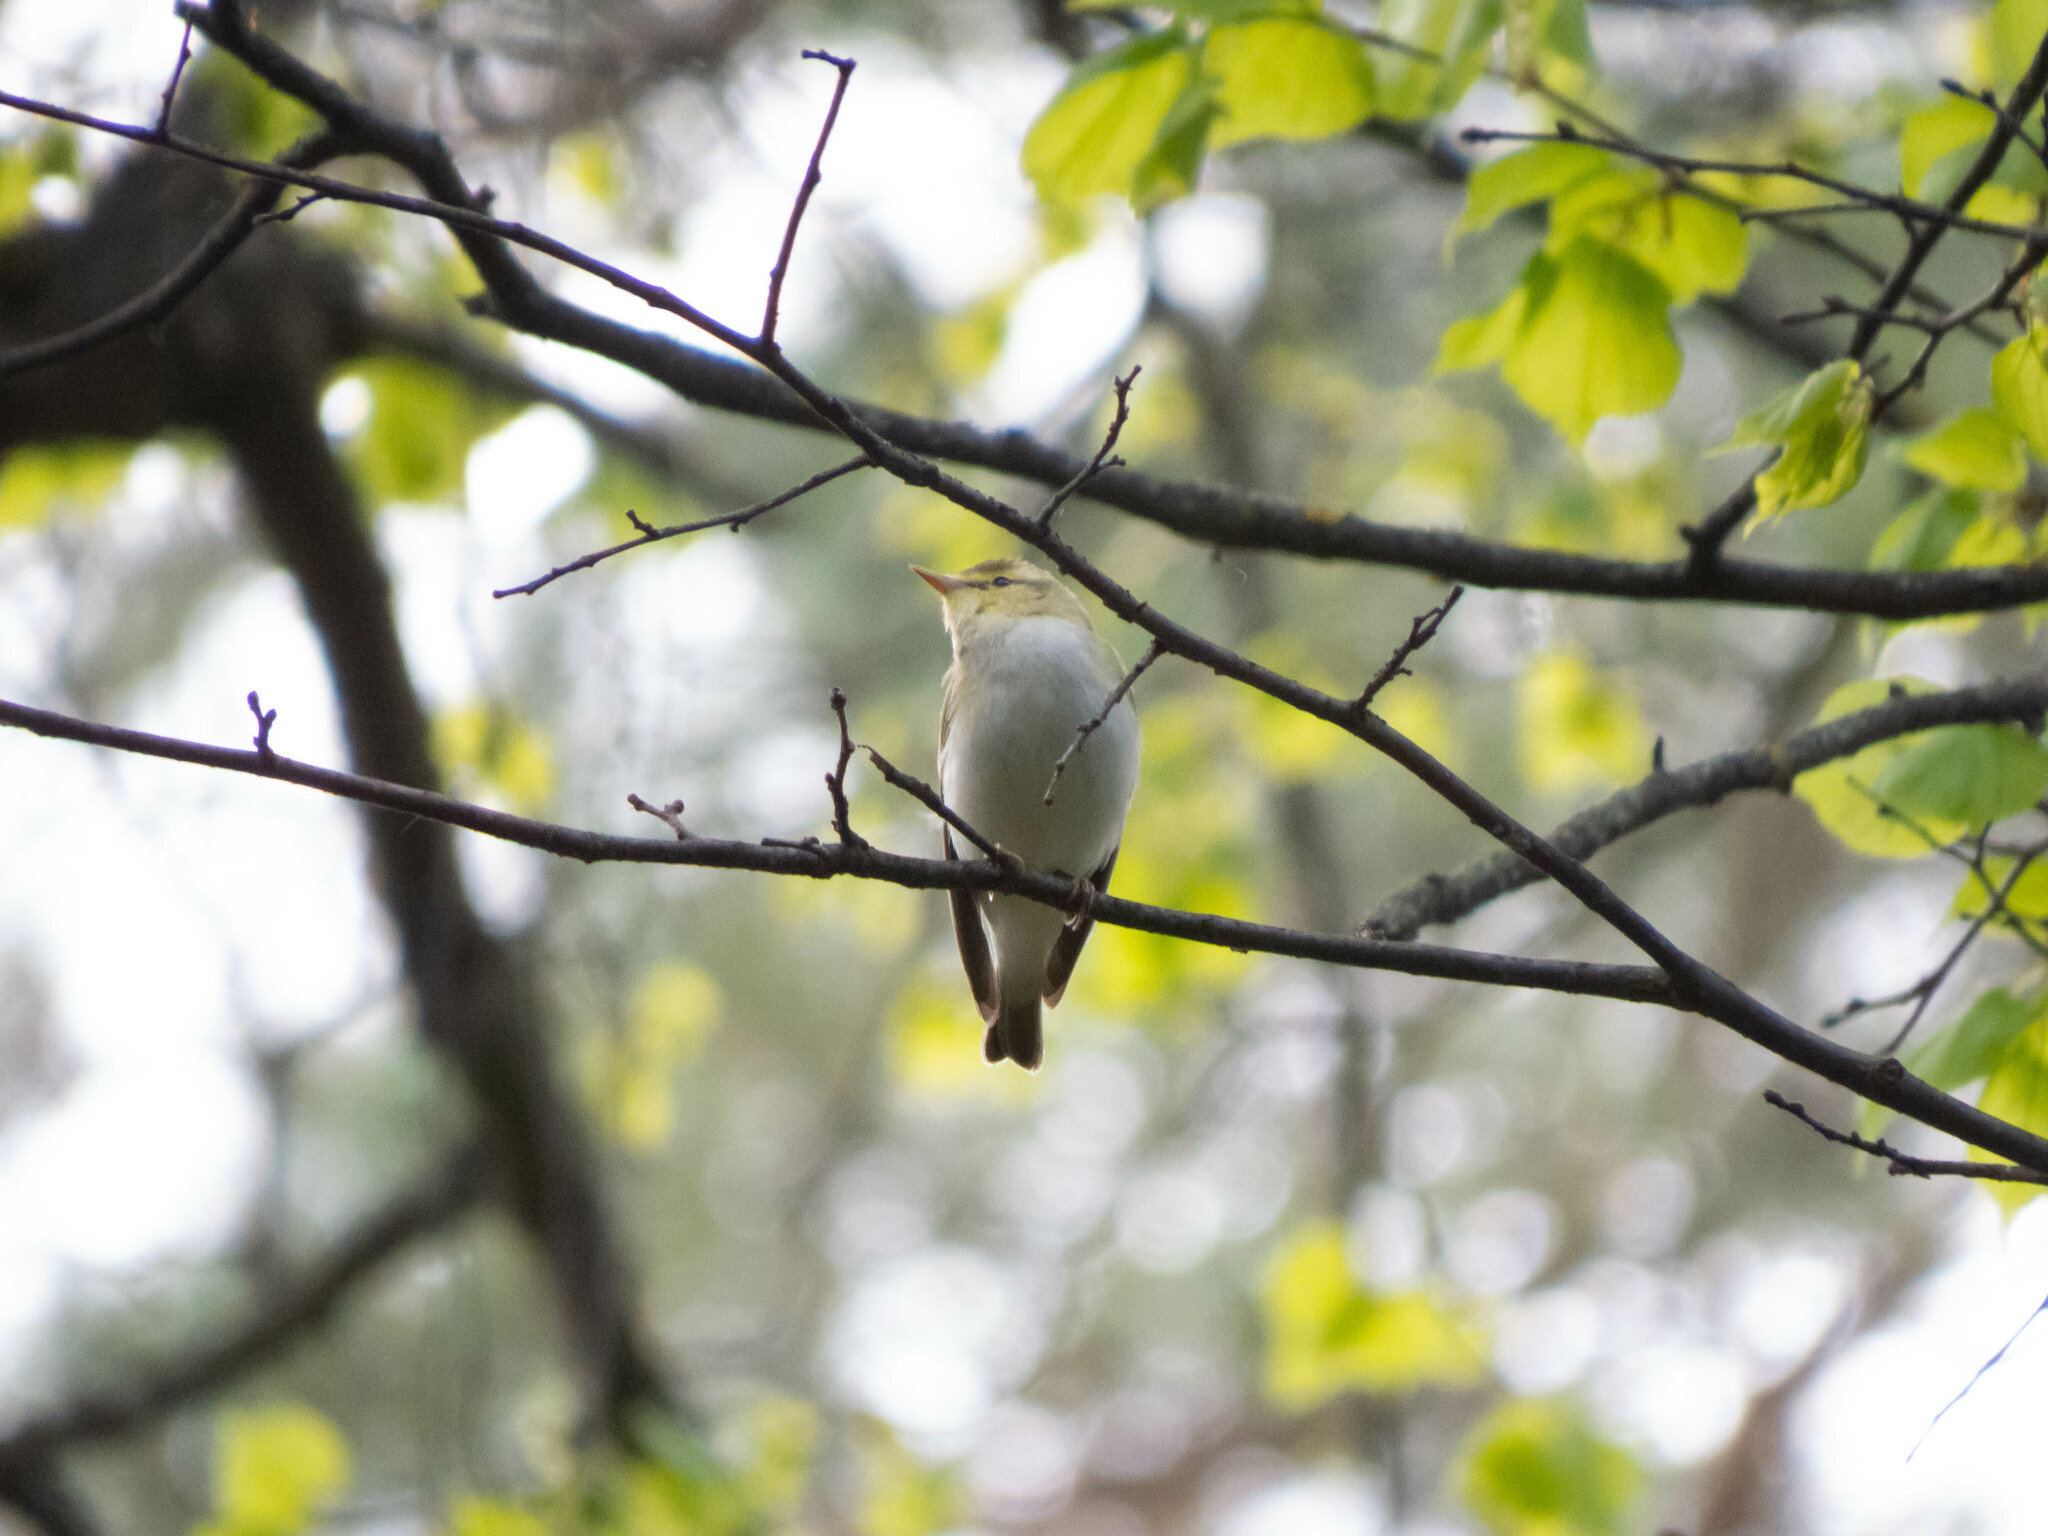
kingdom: Animalia
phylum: Chordata
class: Aves
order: Passeriformes
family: Phylloscopidae
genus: Phylloscopus
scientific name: Phylloscopus sibillatrix
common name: Wood warbler
